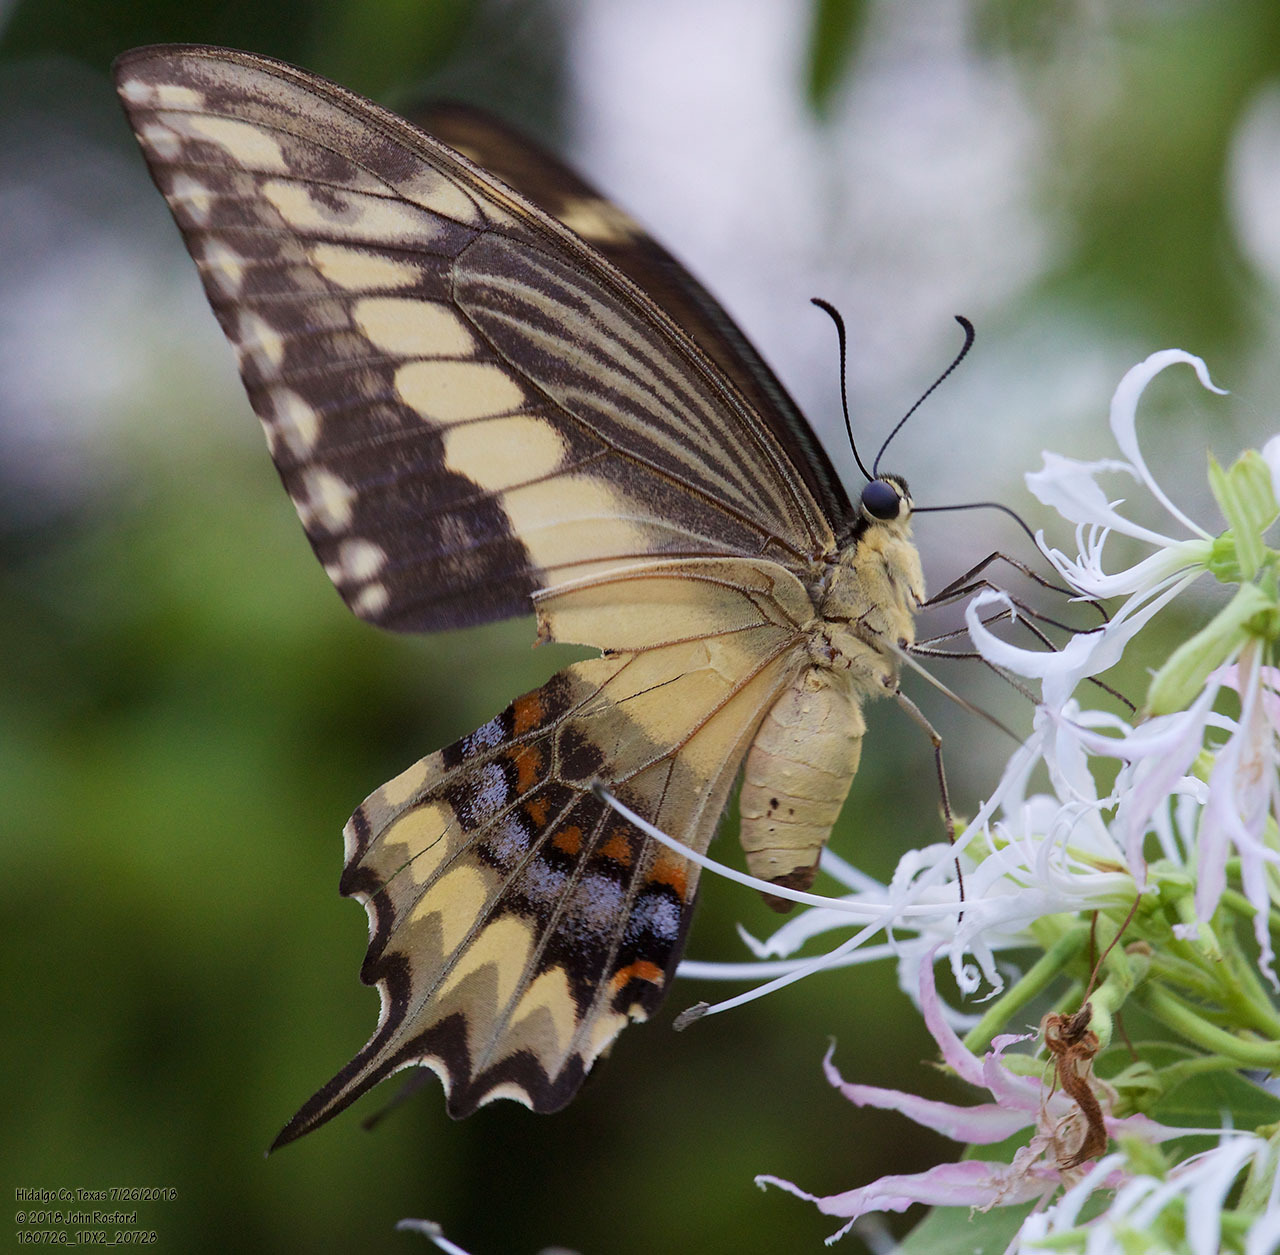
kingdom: Animalia
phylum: Arthropoda
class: Insecta
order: Lepidoptera
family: Papilionidae
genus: Papilio
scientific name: Papilio ornythion
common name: Ornythion swallowtail
